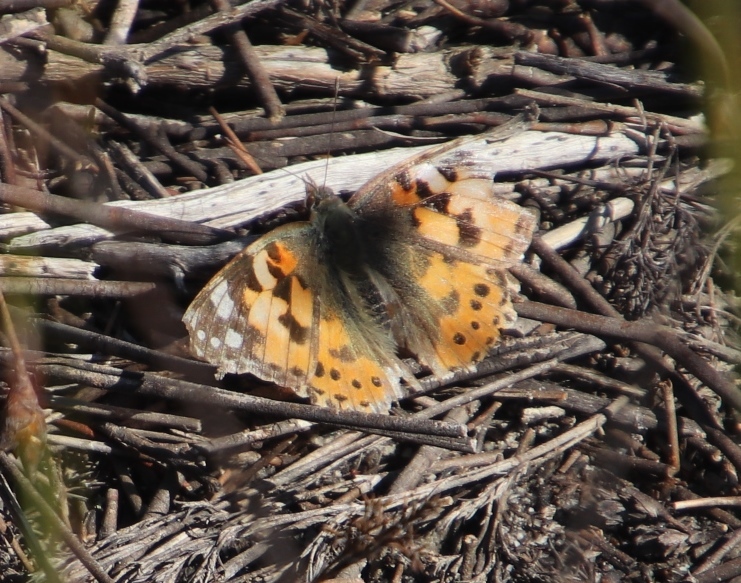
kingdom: Animalia
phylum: Arthropoda
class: Insecta
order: Lepidoptera
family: Nymphalidae
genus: Vanessa
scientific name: Vanessa cardui
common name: Painted lady
